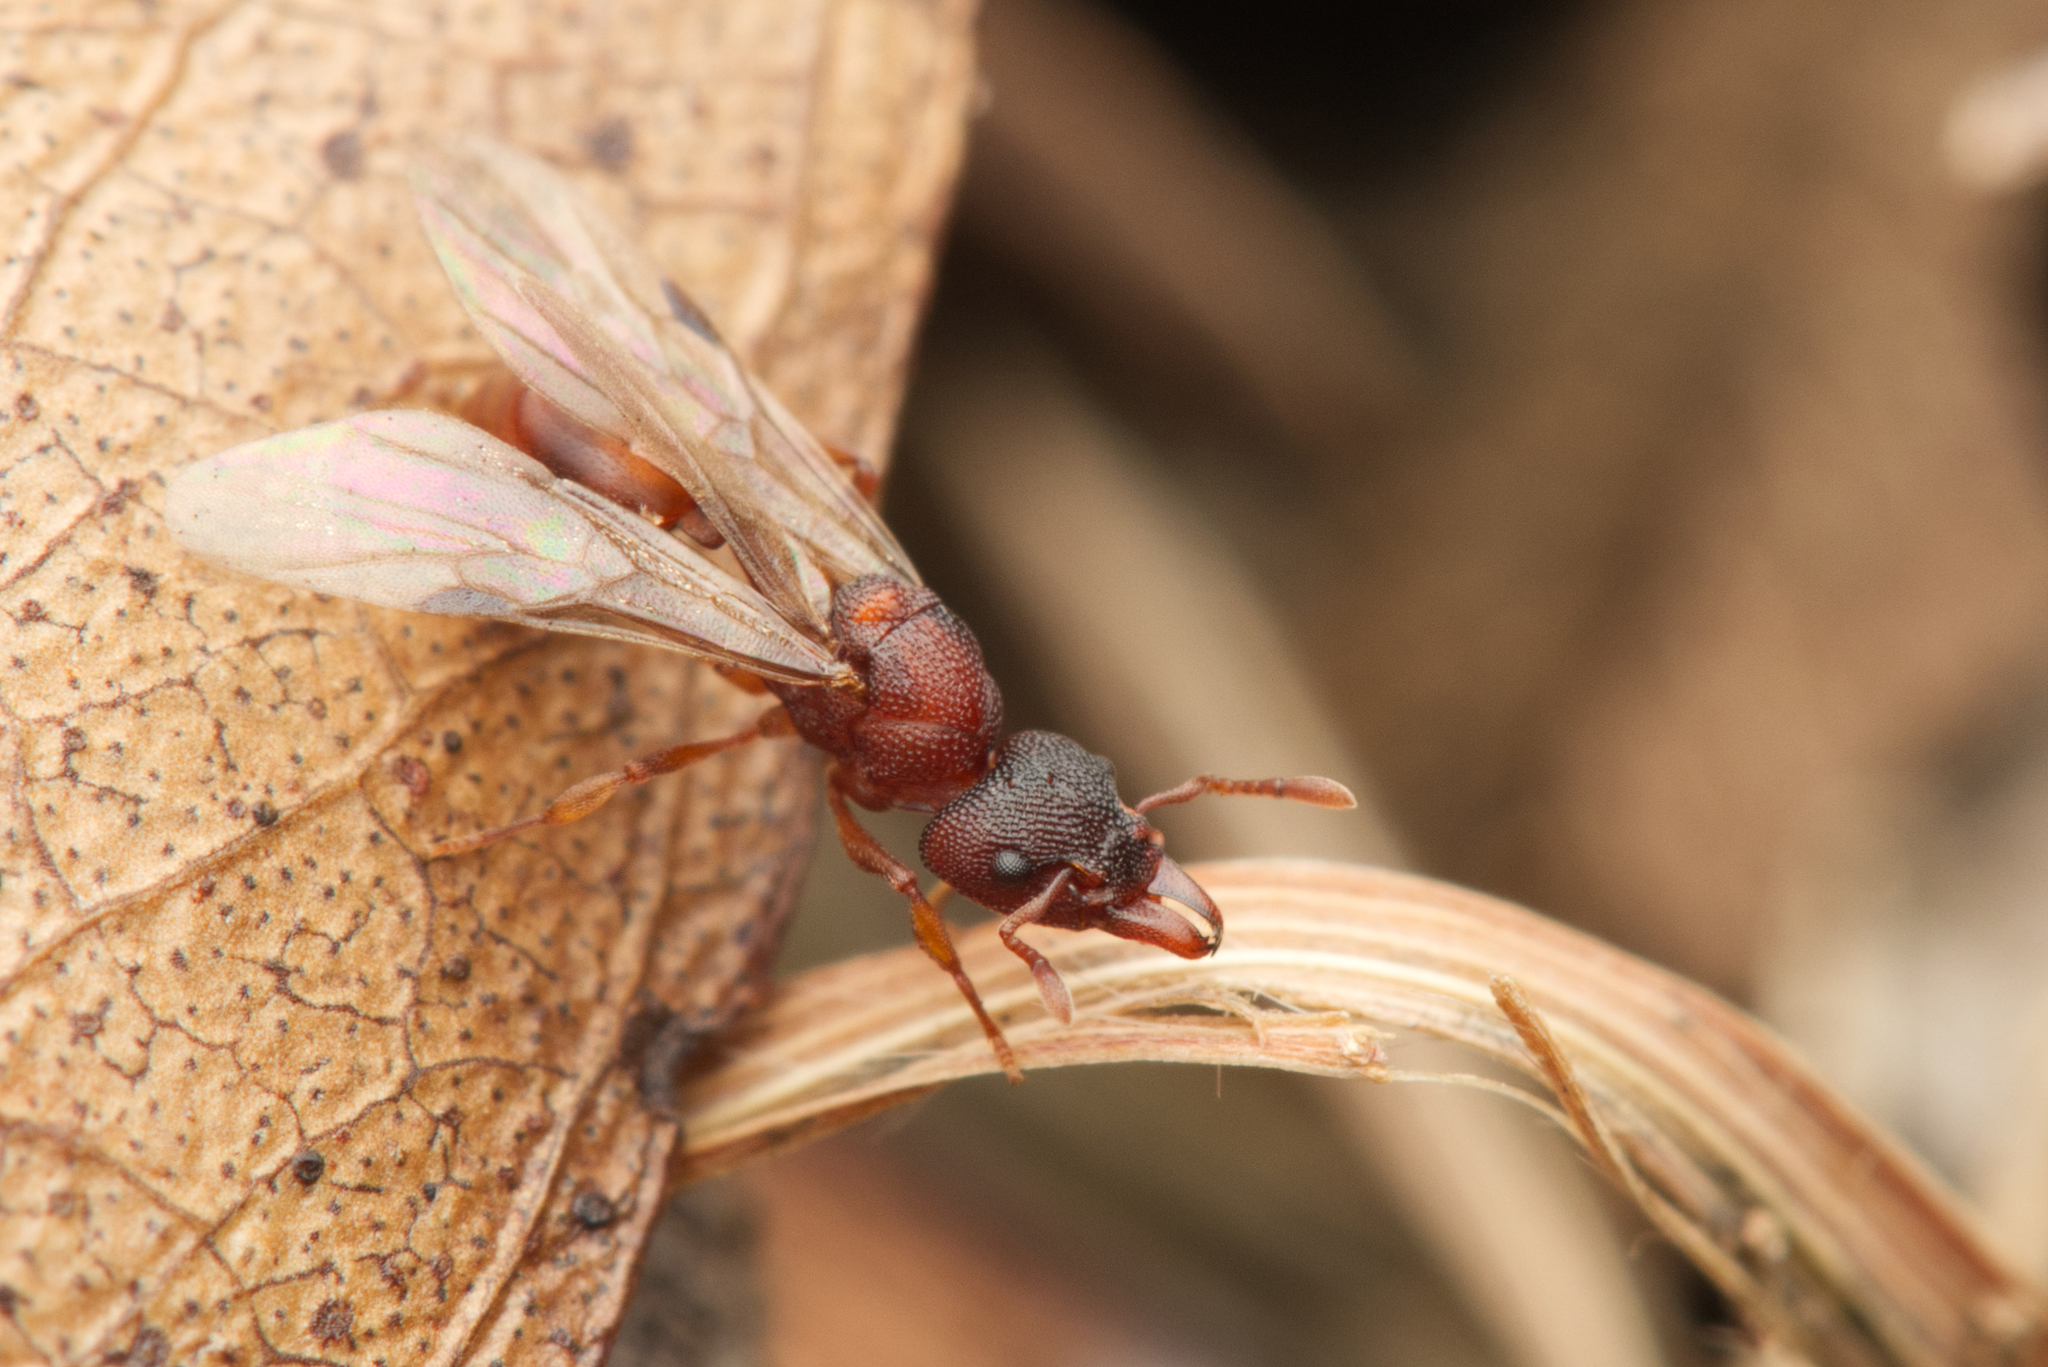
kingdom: Animalia
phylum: Arthropoda
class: Insecta
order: Hymenoptera
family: Formicidae
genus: Mesostruma
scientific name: Mesostruma turneri
